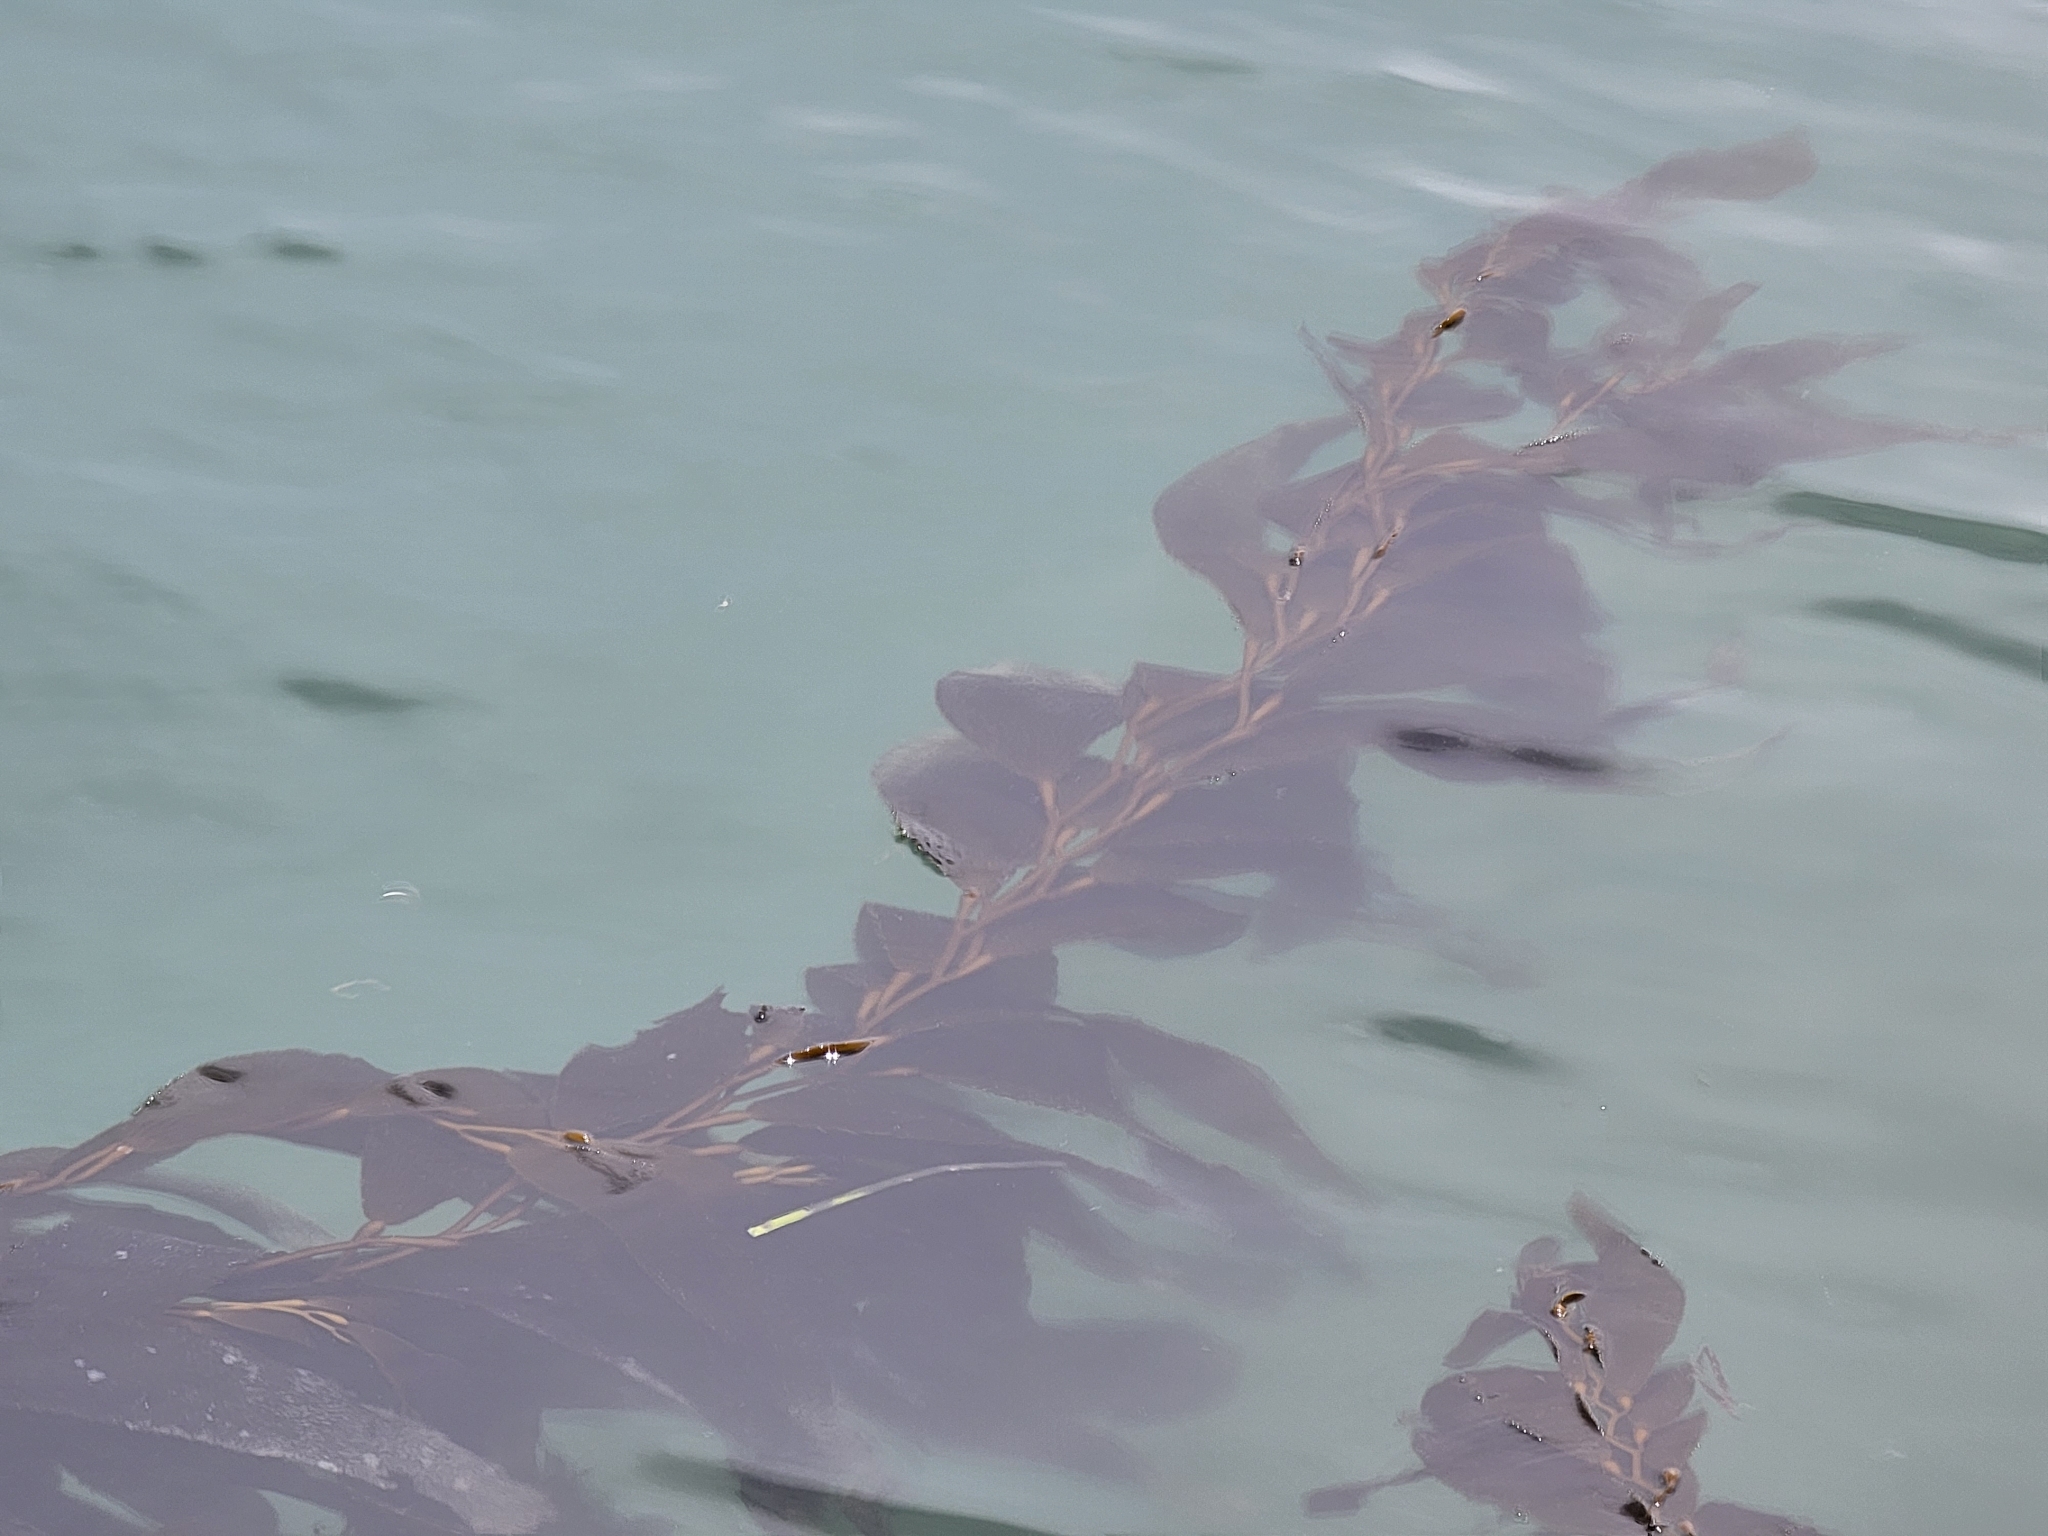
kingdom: Chromista
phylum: Ochrophyta
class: Phaeophyceae
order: Laminariales
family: Laminariaceae
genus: Macrocystis
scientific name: Macrocystis pyrifera
